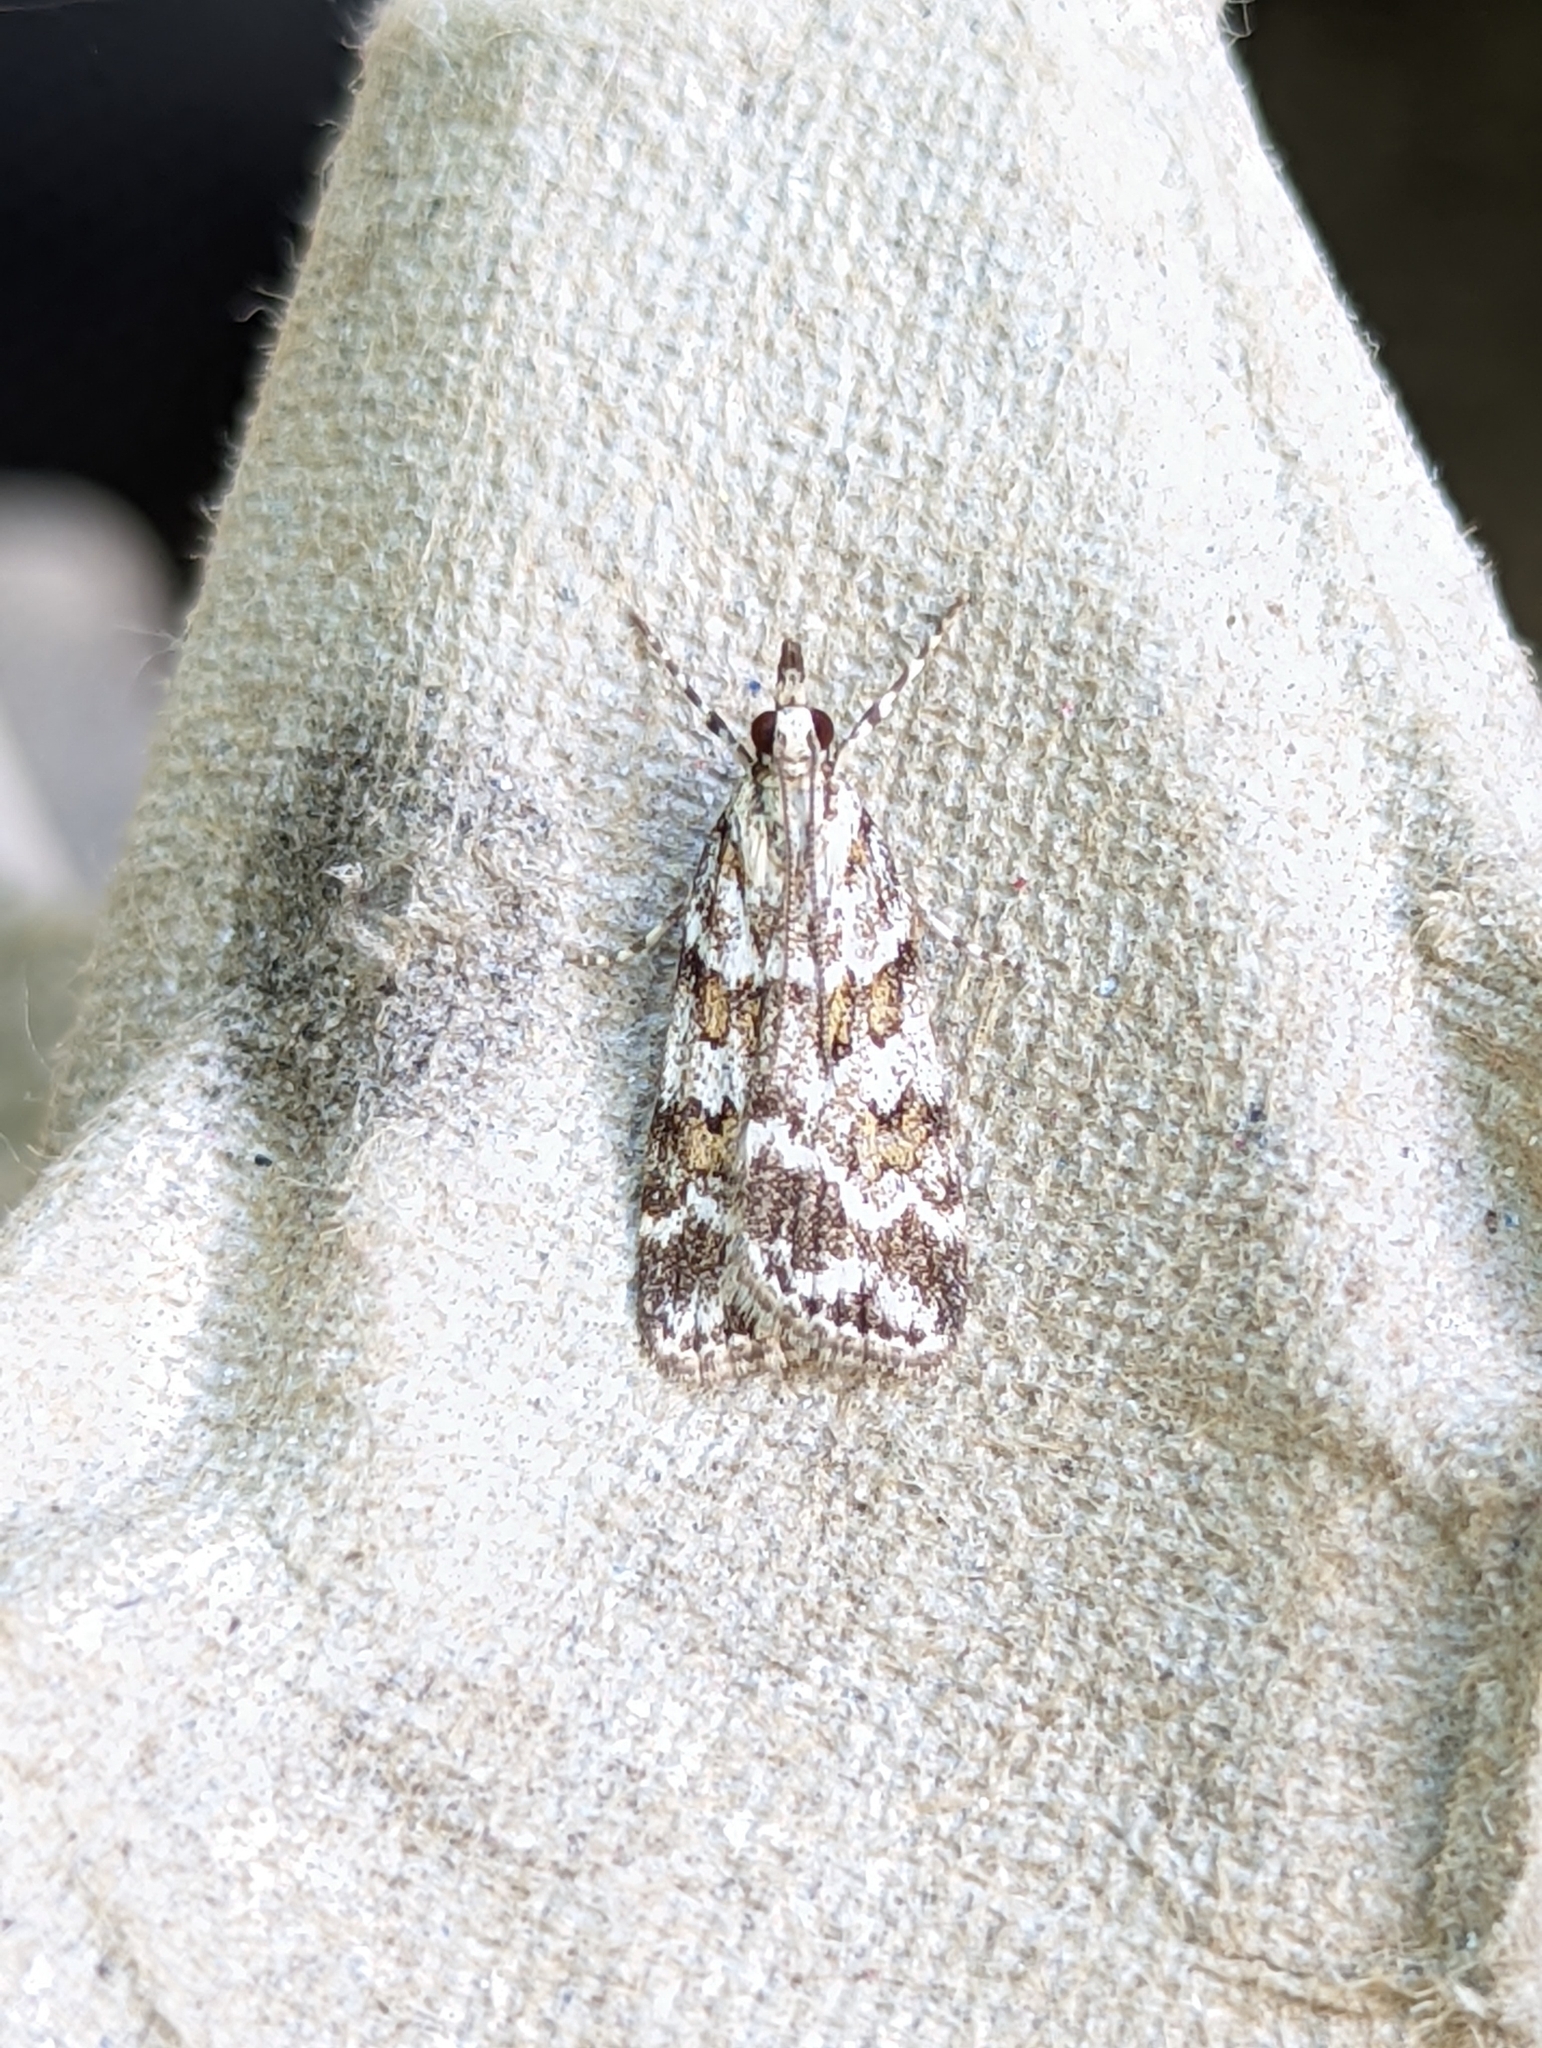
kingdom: Animalia
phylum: Arthropoda
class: Insecta
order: Lepidoptera
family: Crambidae
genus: Scoparia
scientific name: Scoparia pyralella
